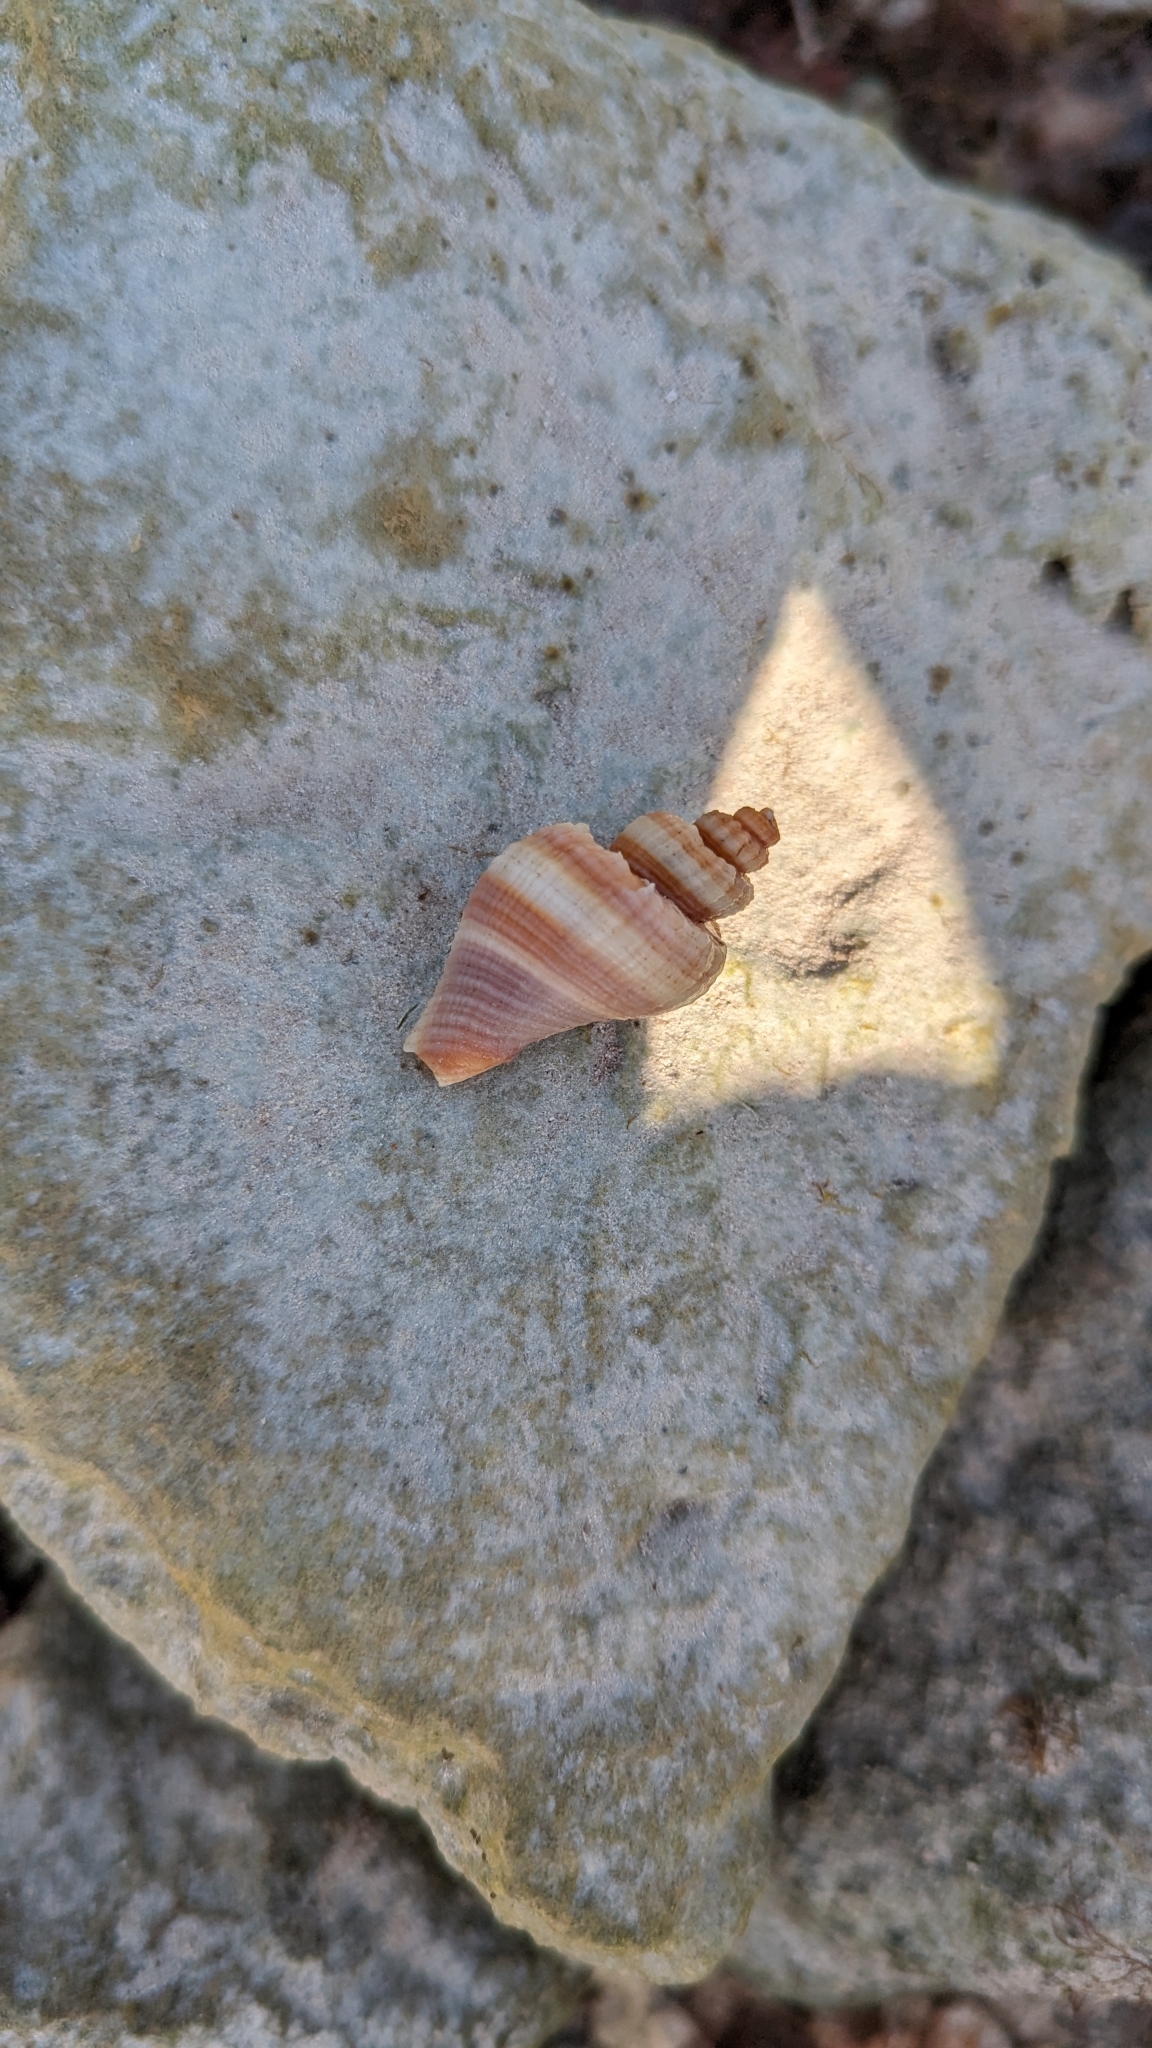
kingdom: Animalia
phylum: Mollusca
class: Gastropoda
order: Neogastropoda
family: Melongenidae
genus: Melongena
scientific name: Melongena corona
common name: American crown conch
